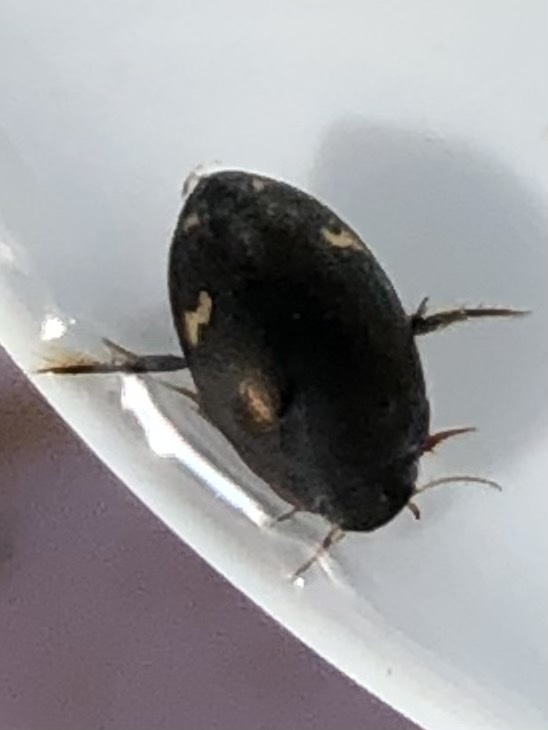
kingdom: Animalia
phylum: Arthropoda
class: Insecta
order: Coleoptera
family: Dytiscidae
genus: Agabus
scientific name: Agabus didymus
